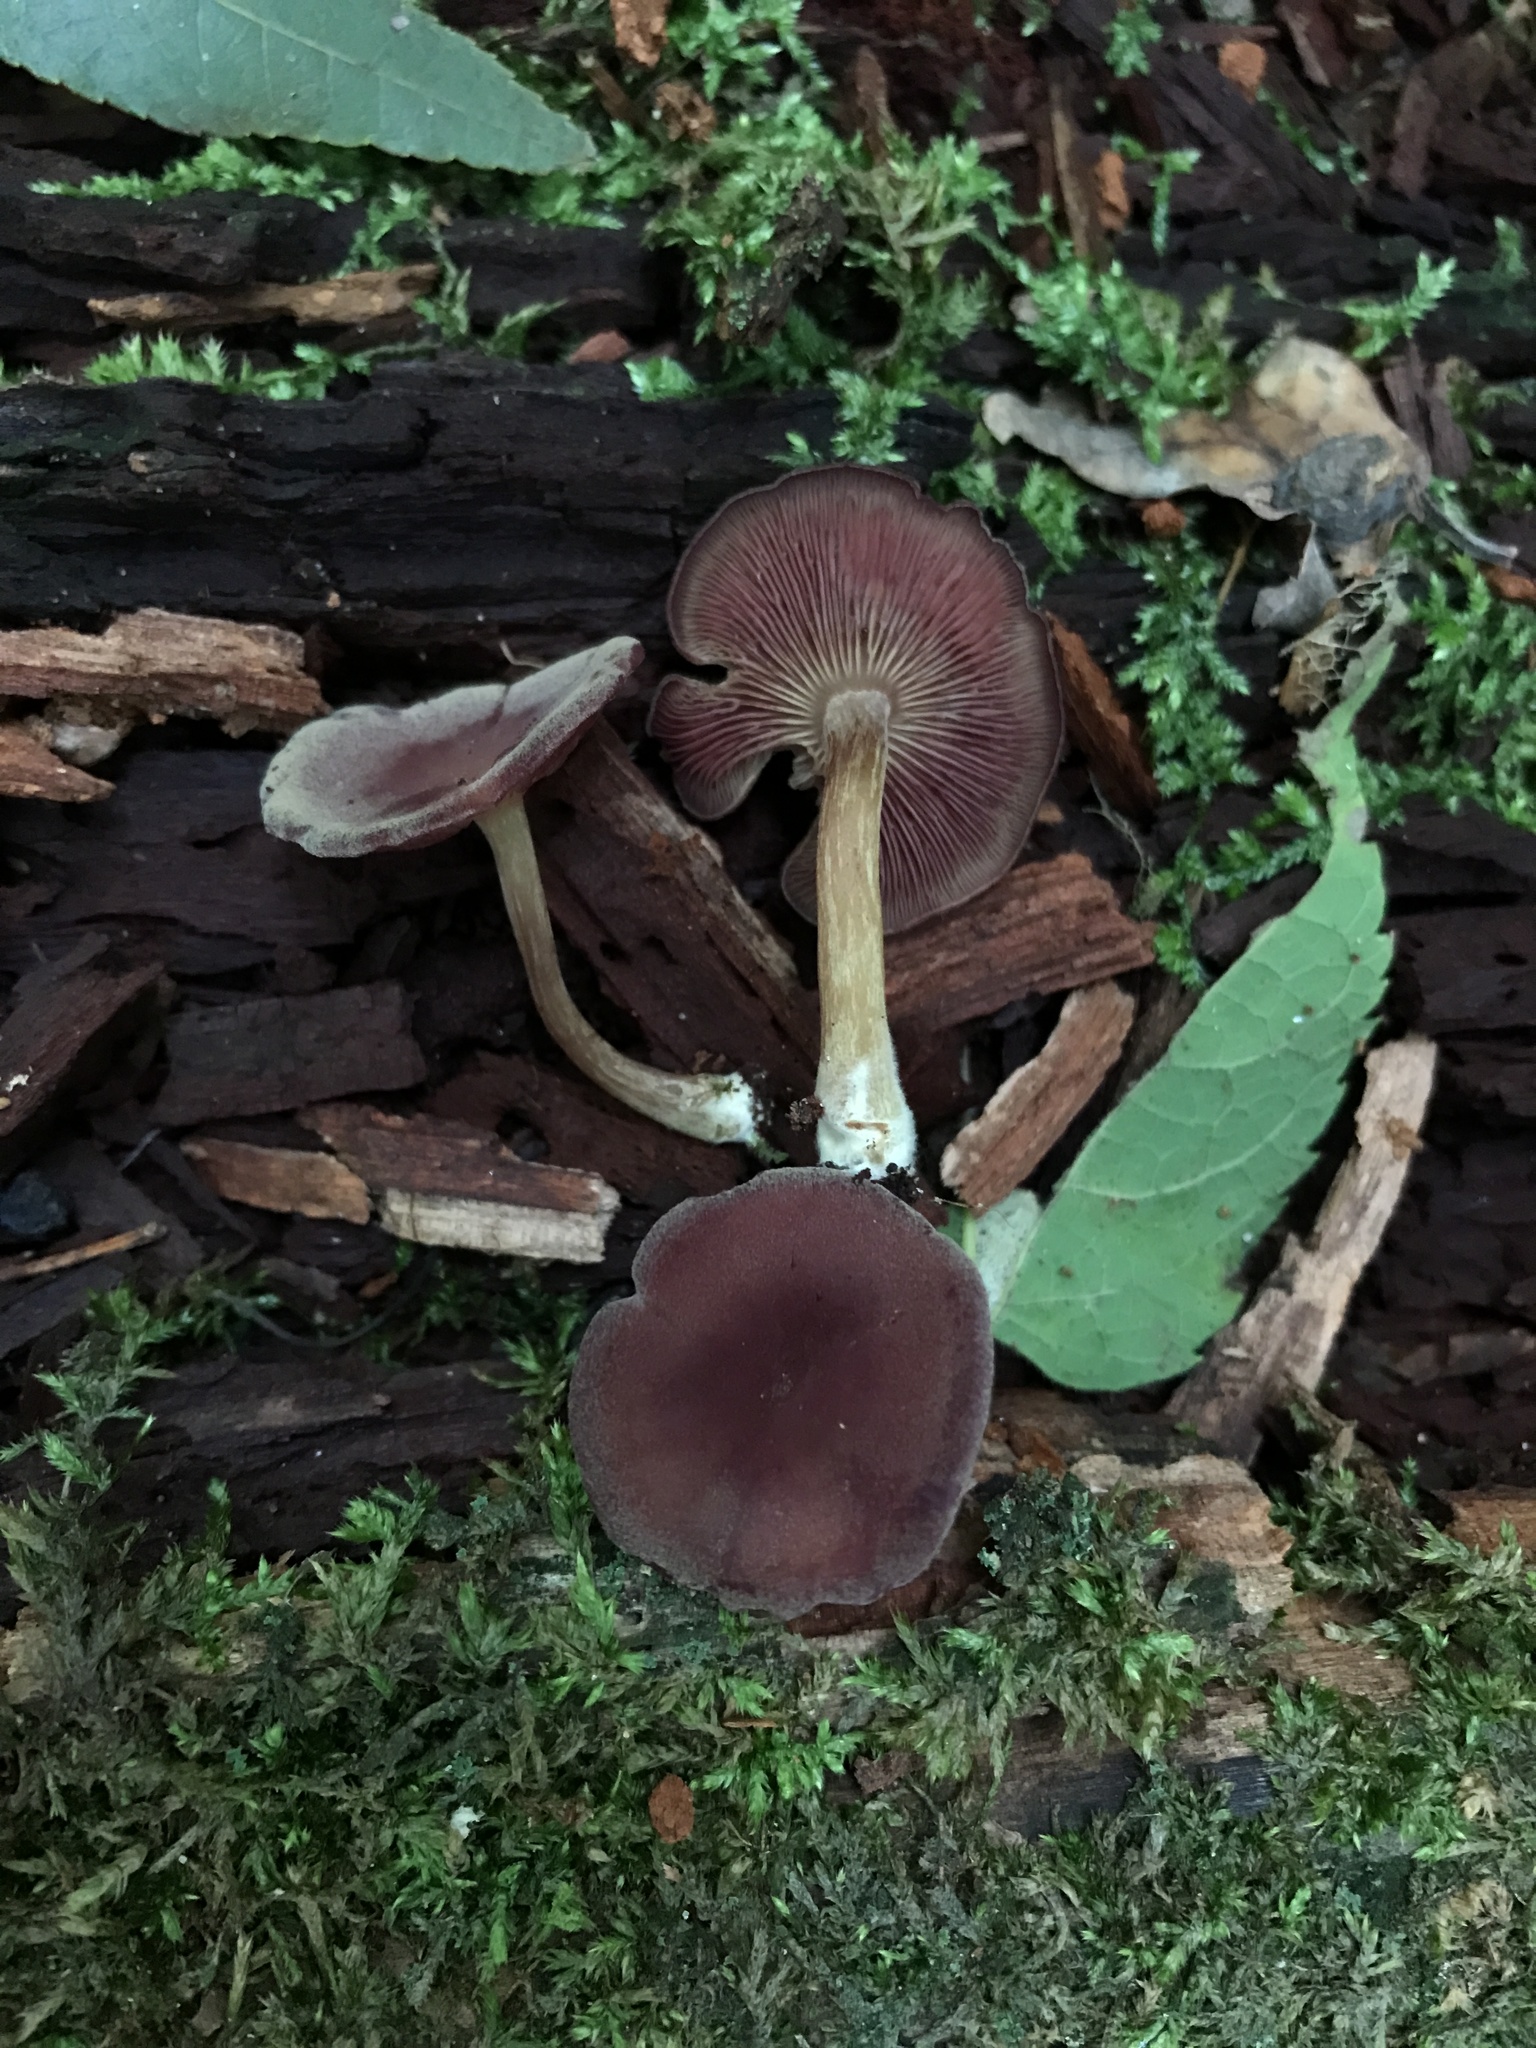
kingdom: Fungi
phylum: Basidiomycota
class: Agaricomycetes
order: Agaricales
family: Callistosporiaceae
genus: Callistosporium
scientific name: Callistosporium purpureomarginatum
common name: Purple-edged lute
